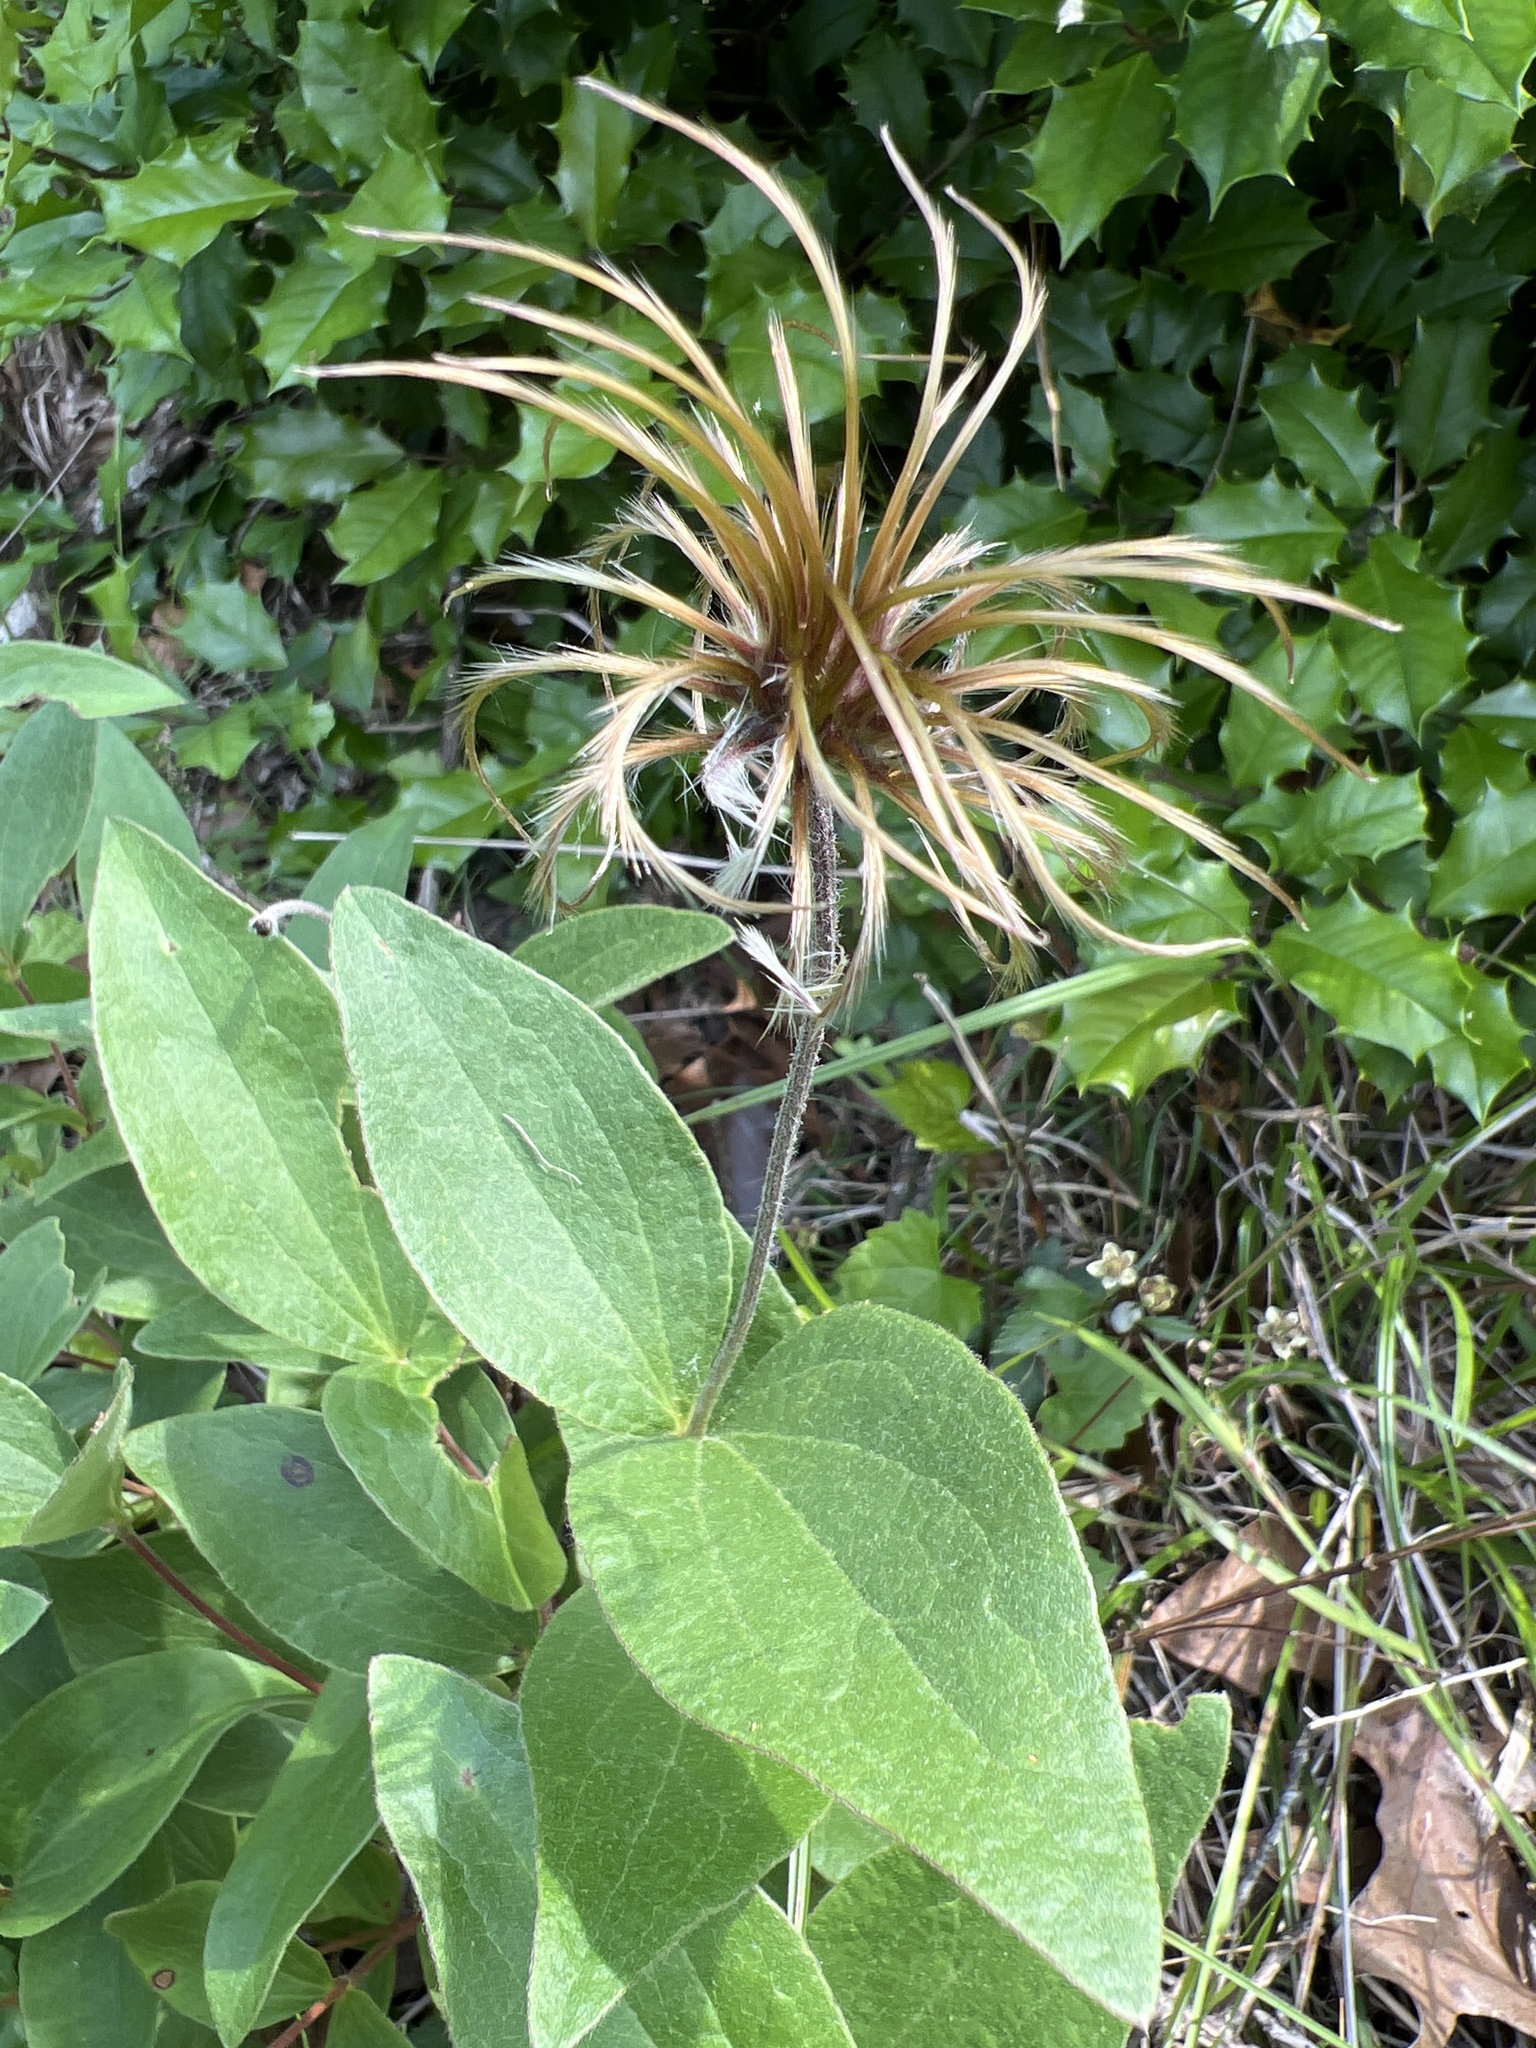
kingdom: Plantae
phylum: Tracheophyta
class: Magnoliopsida
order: Ranunculales
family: Ranunculaceae
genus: Clematis
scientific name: Clematis ochroleuca
